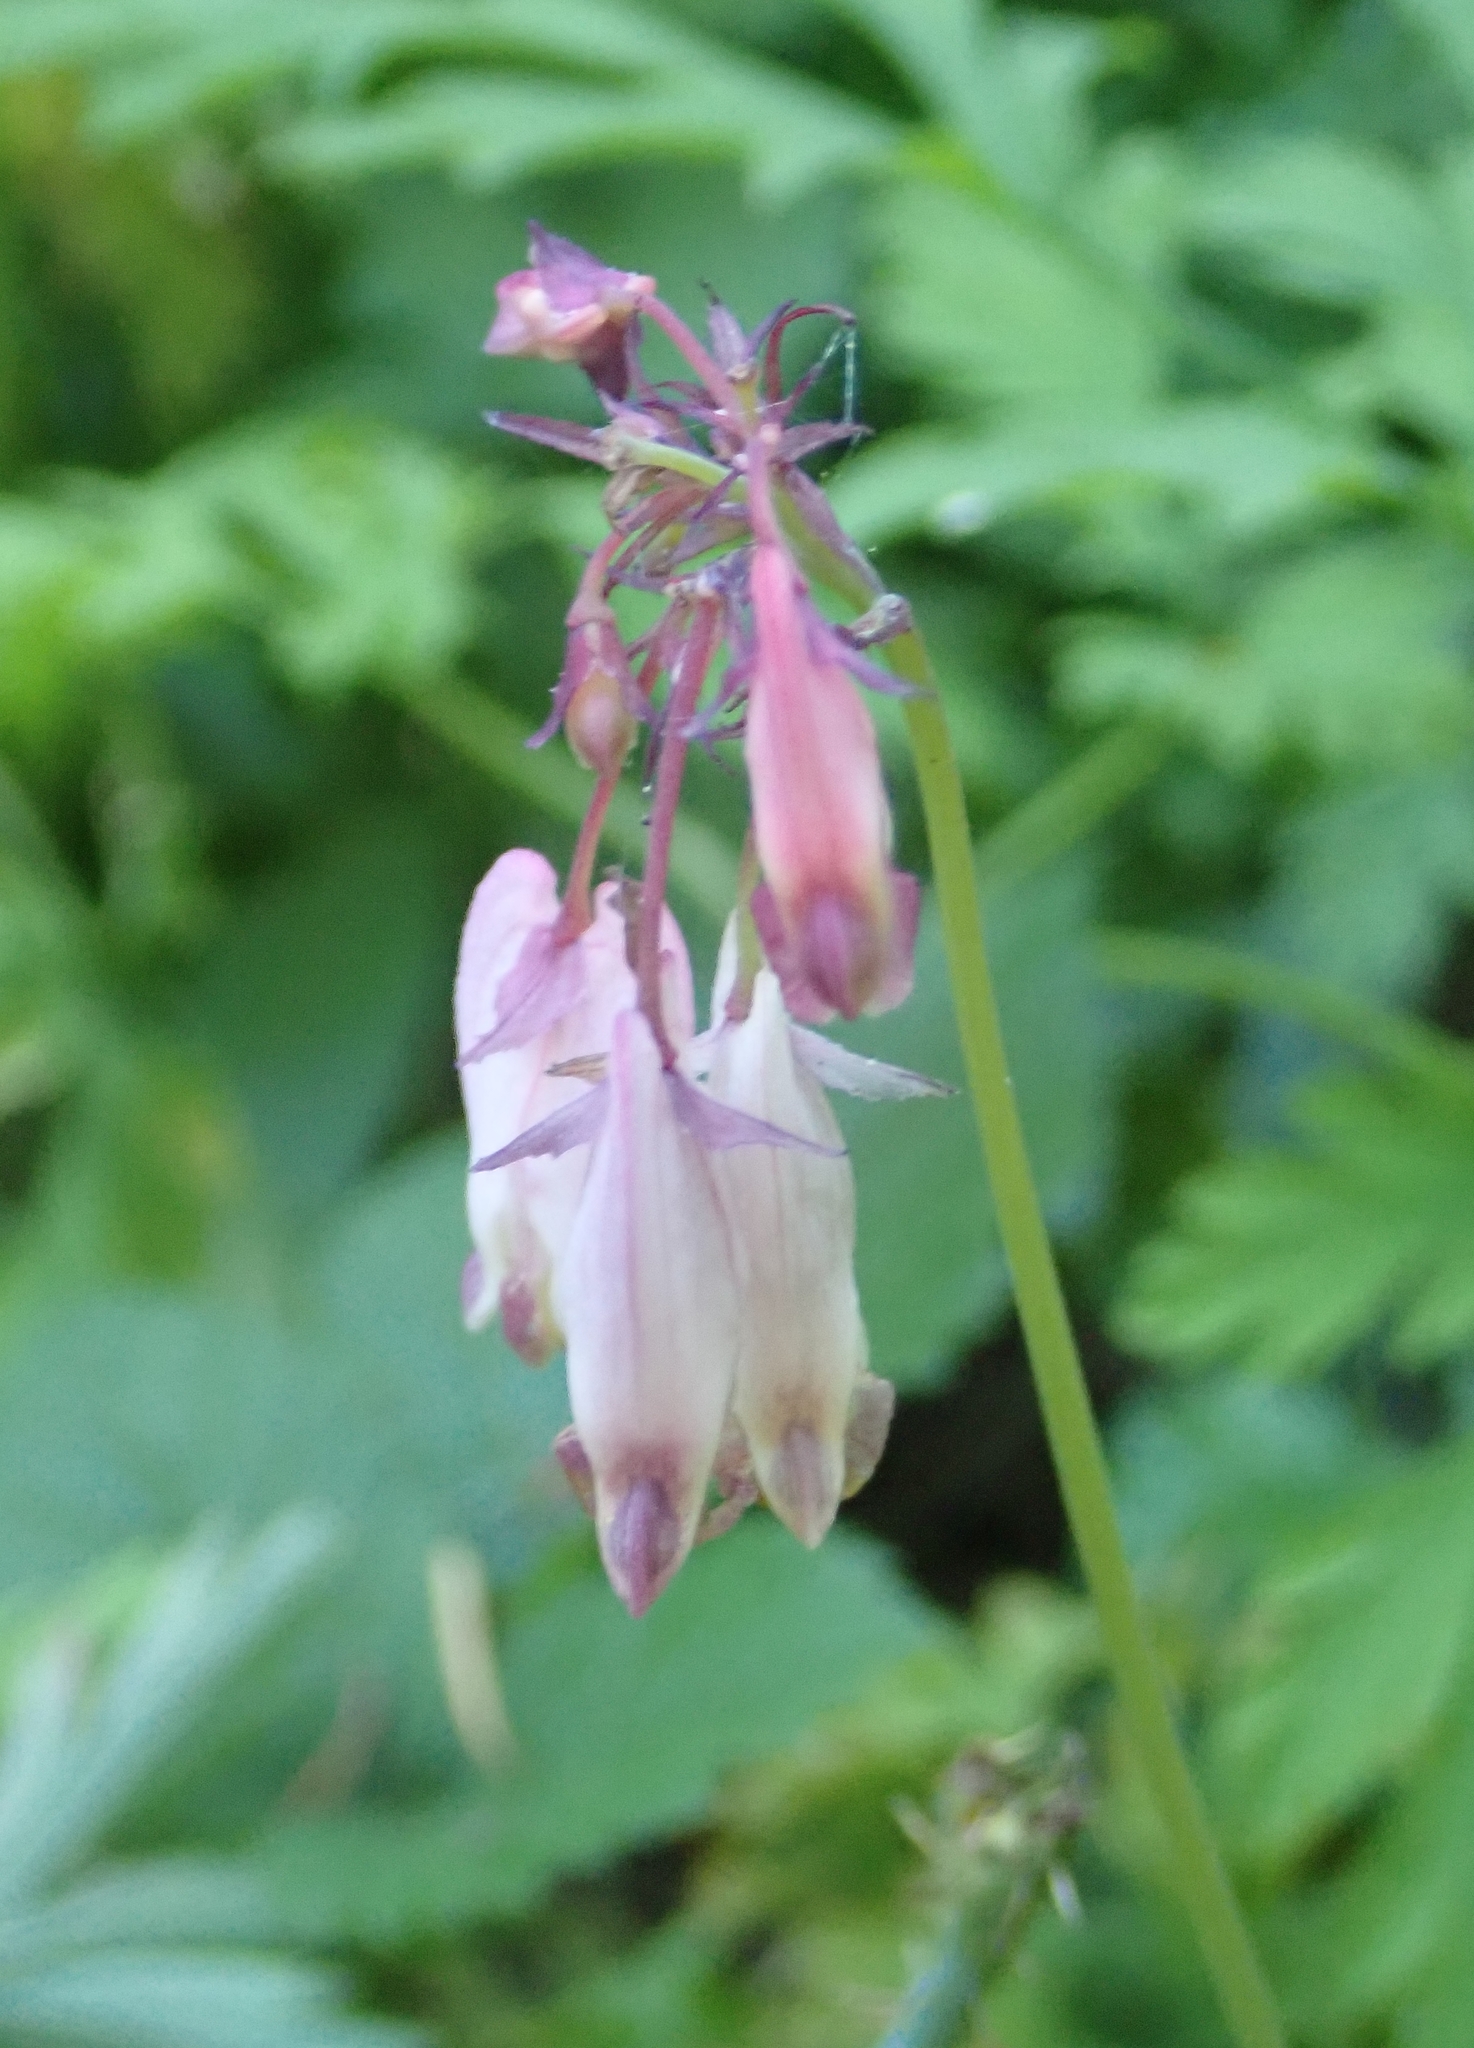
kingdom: Plantae
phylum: Tracheophyta
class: Magnoliopsida
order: Ranunculales
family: Papaveraceae
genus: Dicentra
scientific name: Dicentra formosa
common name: Bleeding-heart
